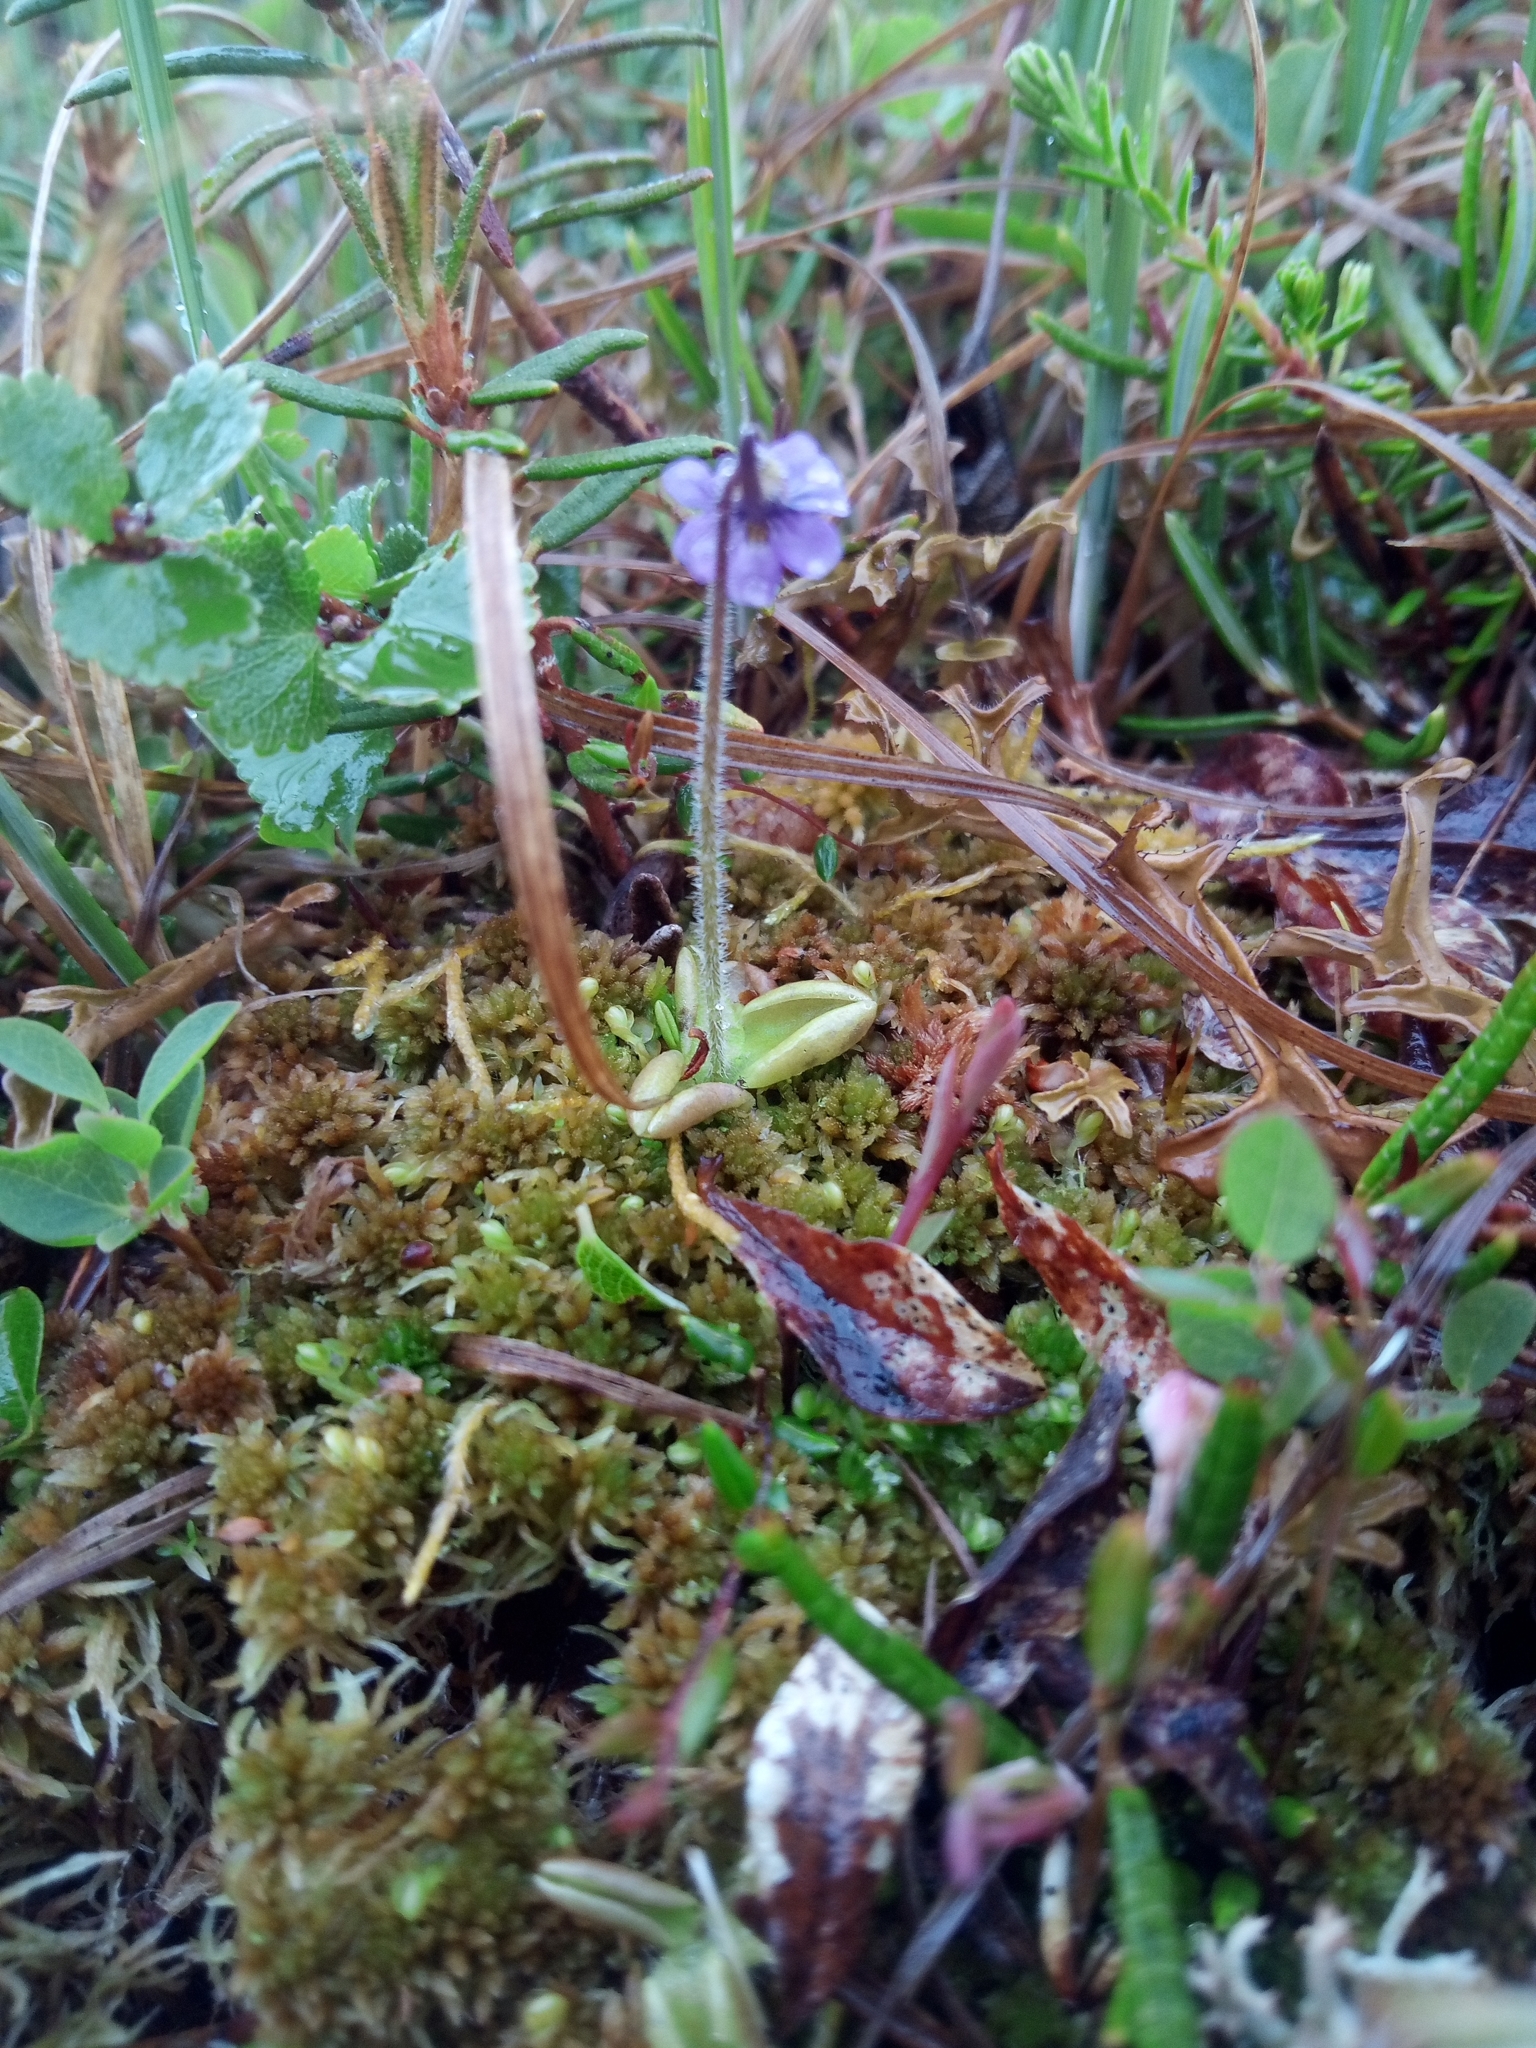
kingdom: Plantae
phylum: Tracheophyta
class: Magnoliopsida
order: Lamiales
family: Lentibulariaceae
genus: Pinguicula
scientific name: Pinguicula villosa
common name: Hairy butterwort
